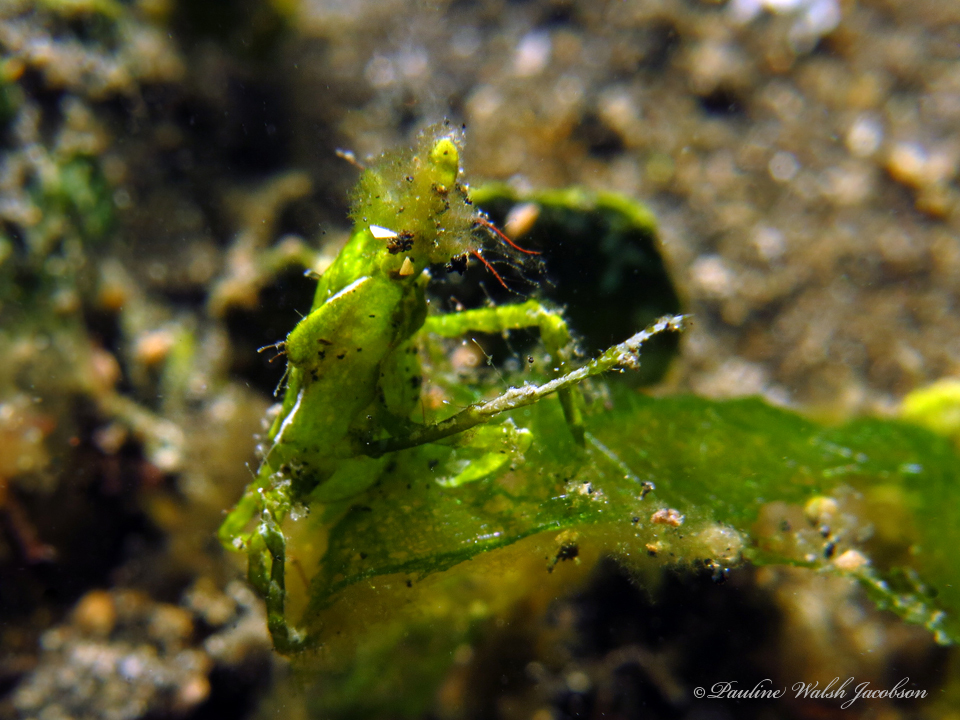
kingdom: Animalia
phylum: Arthropoda
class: Malacostraca
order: Decapoda
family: Epialtidae
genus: Huenia
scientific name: Huenia heraldica
